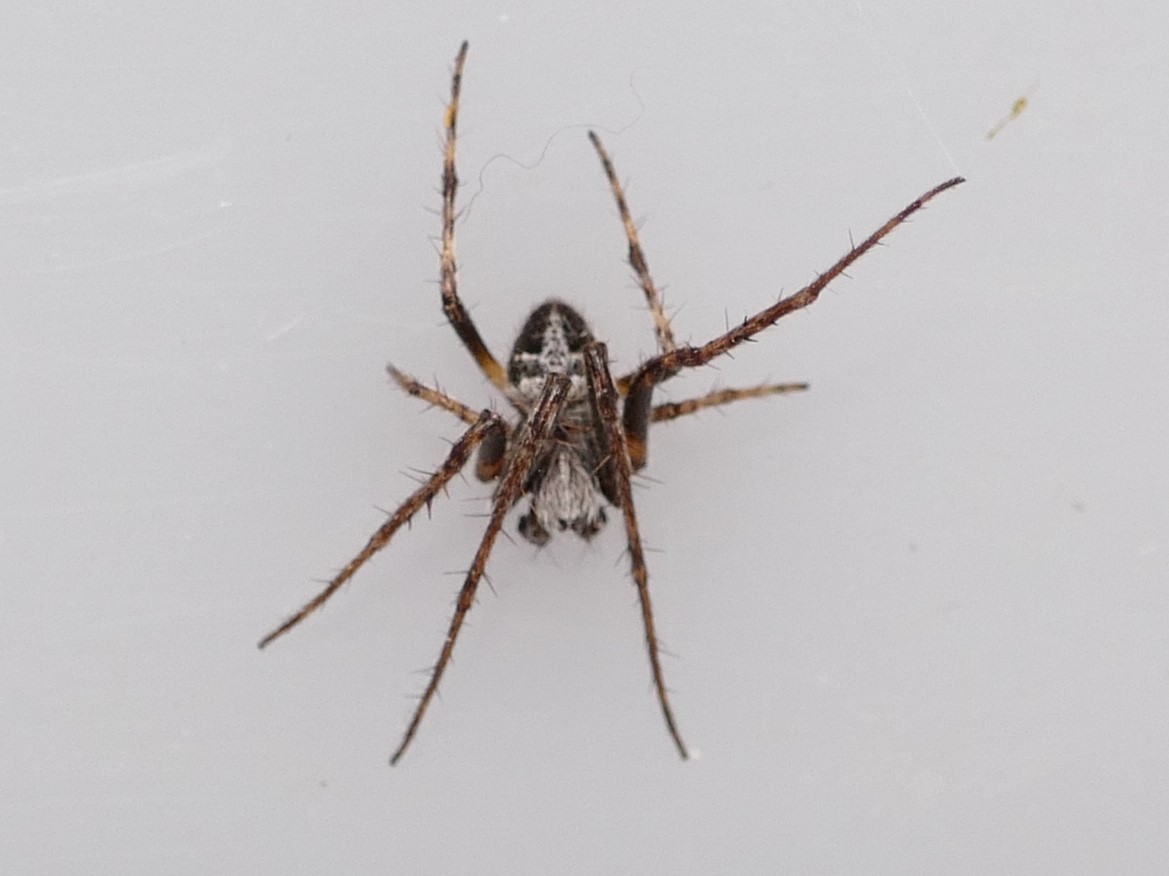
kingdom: Animalia
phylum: Arthropoda
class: Arachnida
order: Araneae
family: Araneidae
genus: Agalenatea
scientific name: Agalenatea redii
